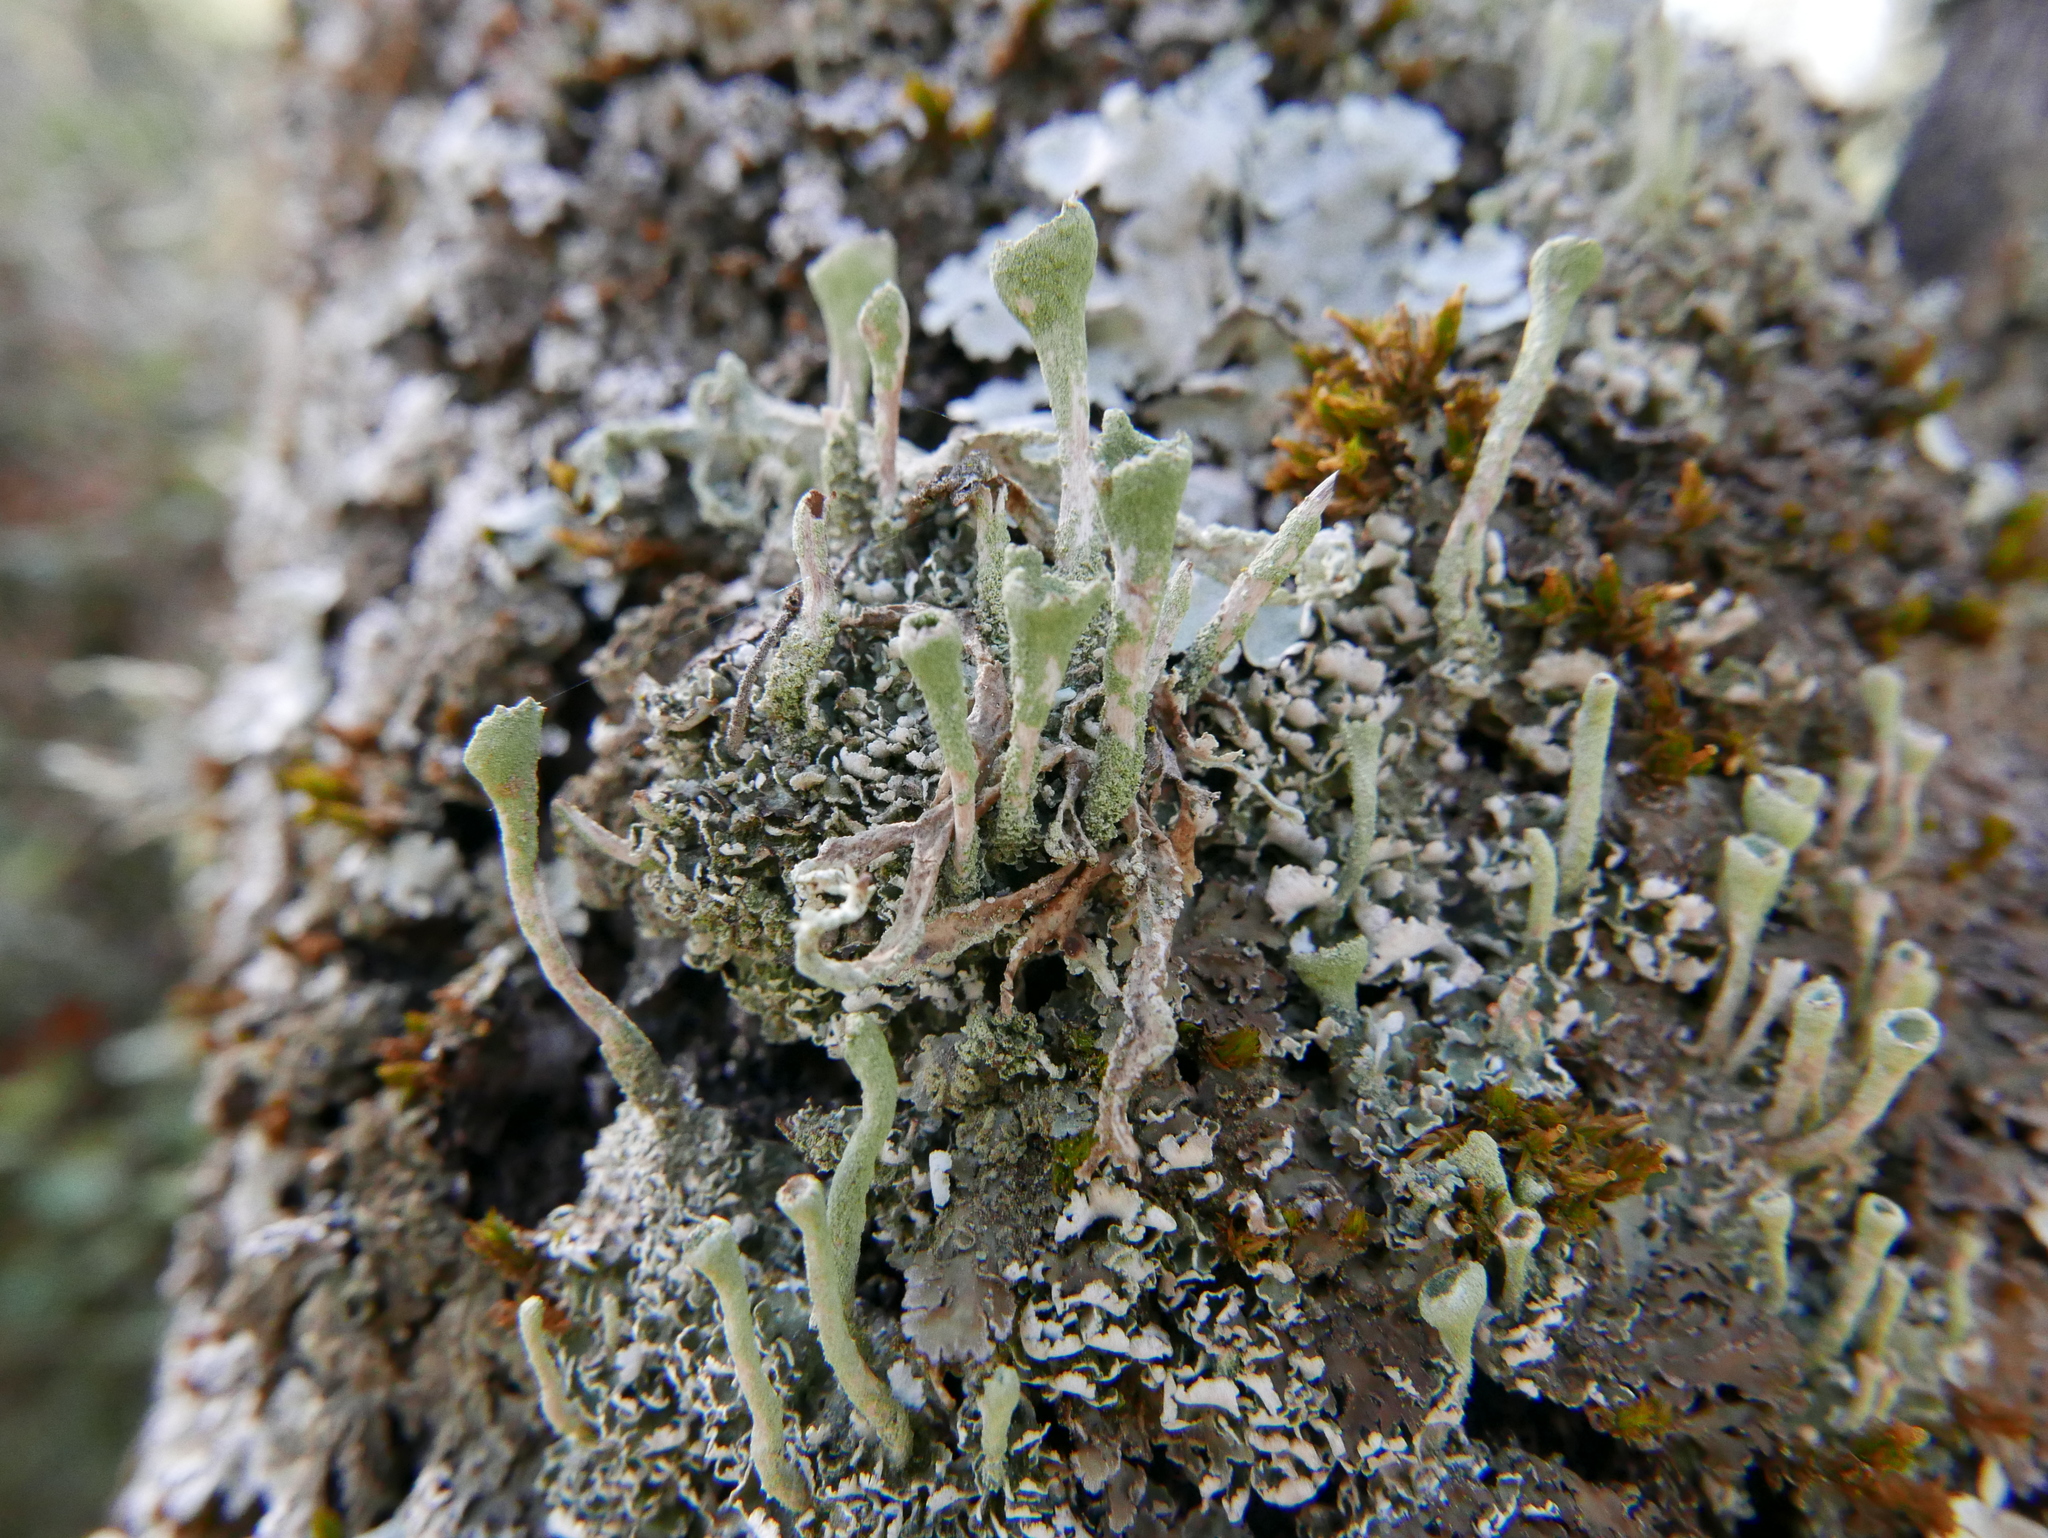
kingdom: Fungi
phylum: Ascomycota
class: Lecanoromycetes
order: Lecanorales
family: Cladoniaceae
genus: Cladonia
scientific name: Cladonia fimbriata
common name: Powdered trumpet lichen
